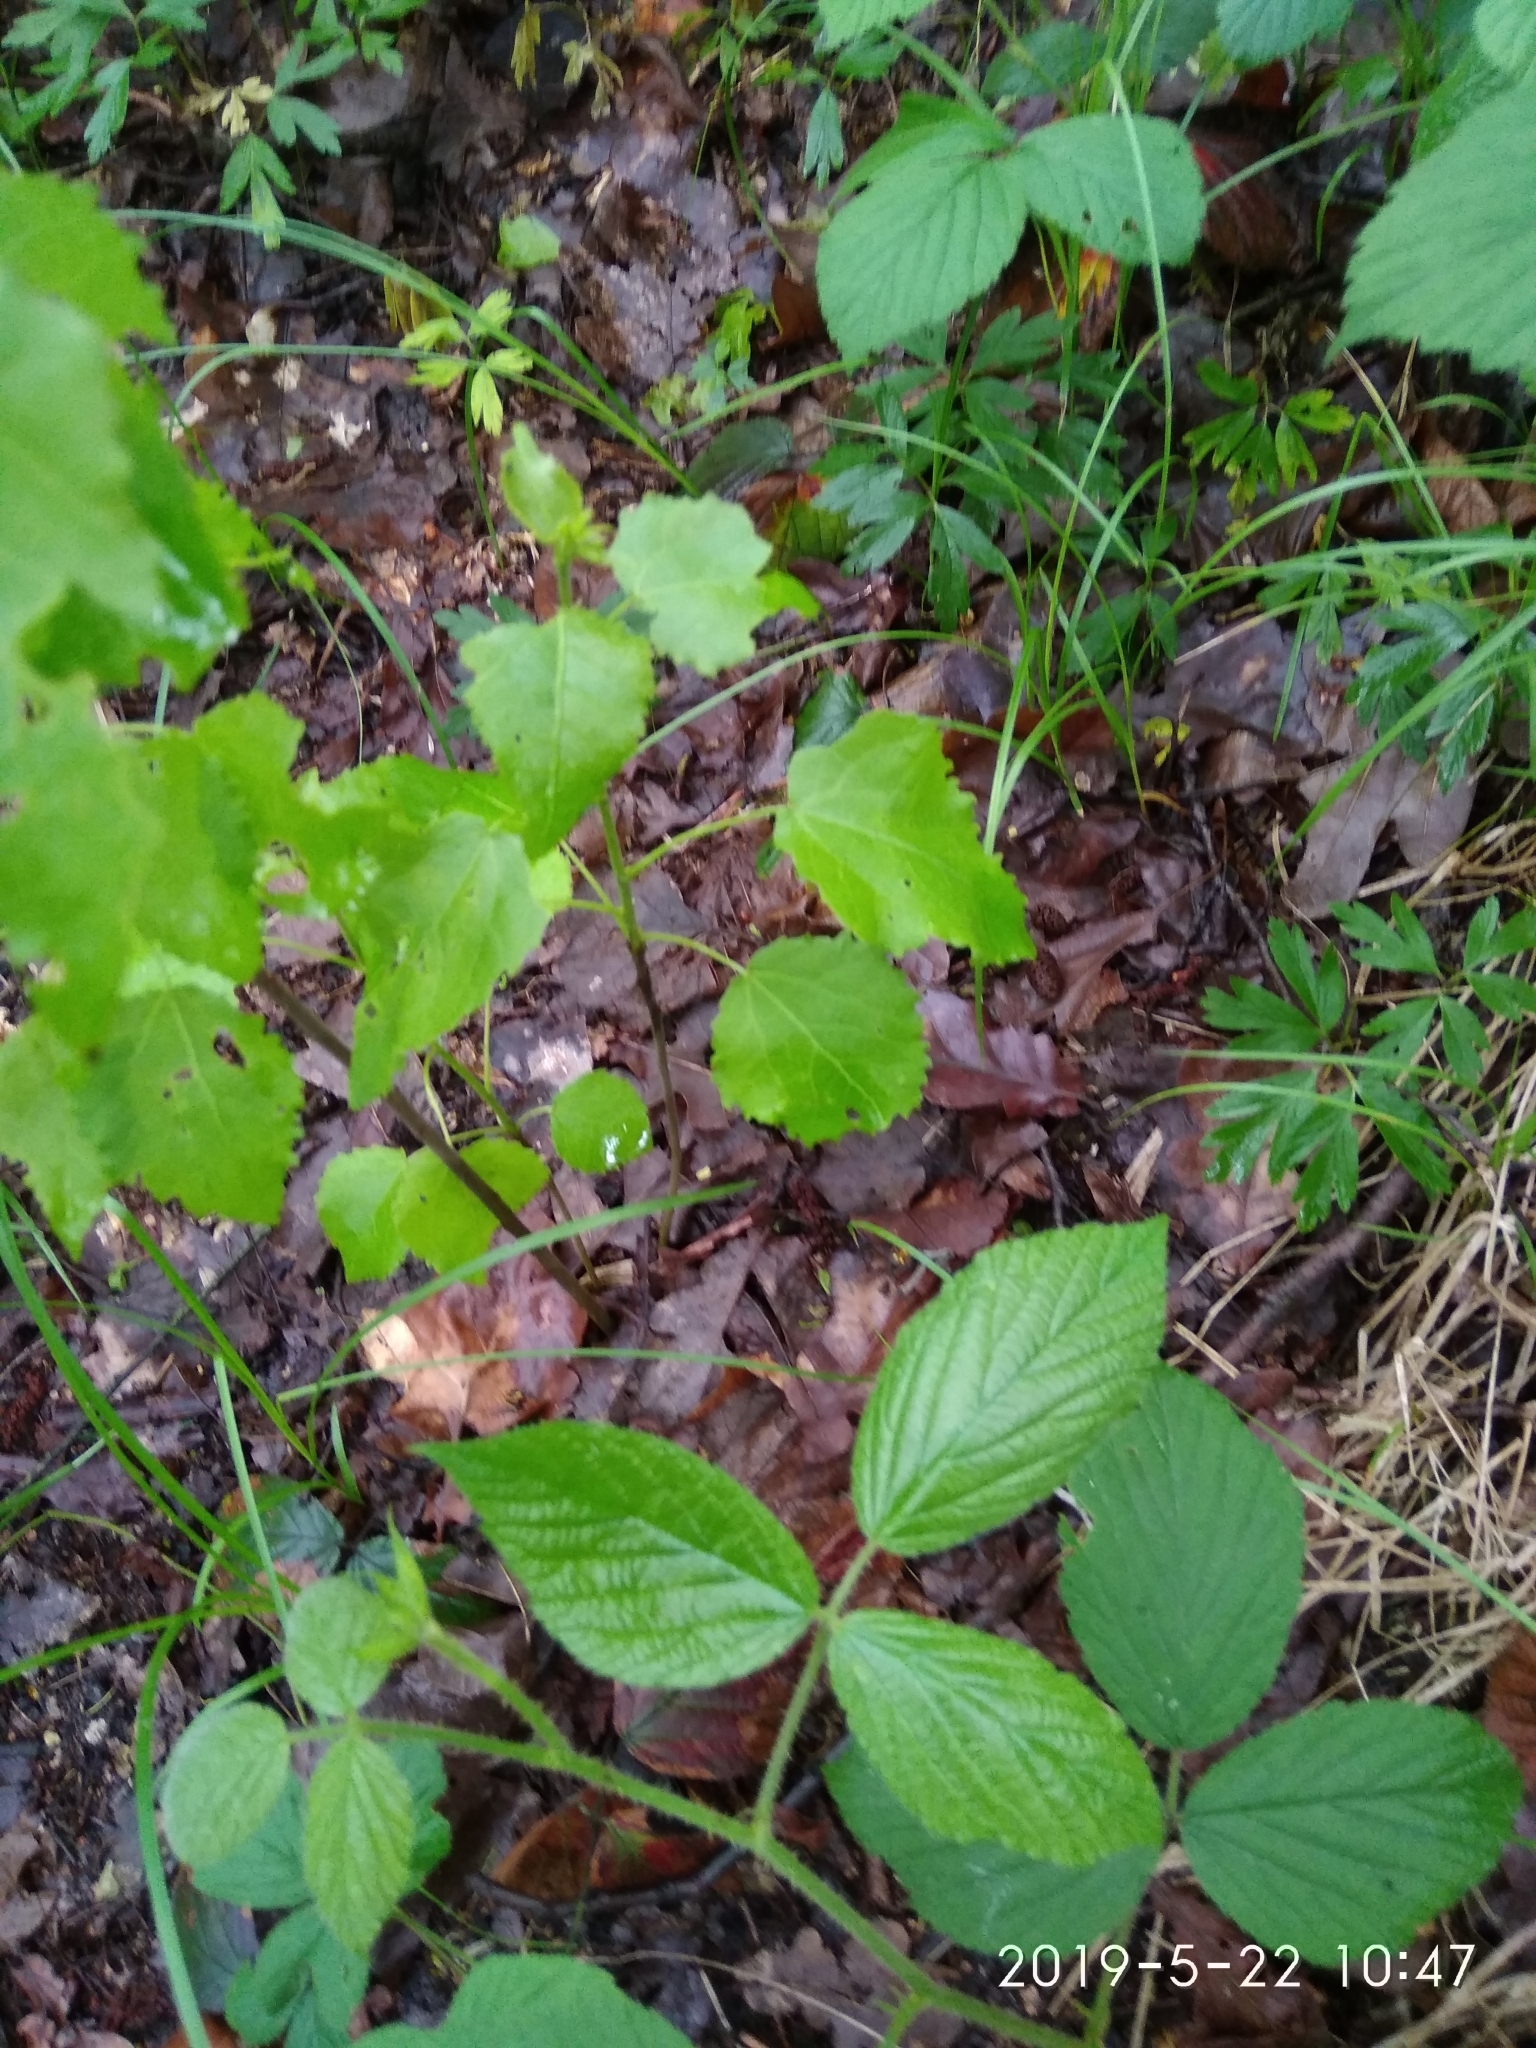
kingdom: Plantae
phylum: Tracheophyta
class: Magnoliopsida
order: Malpighiales
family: Salicaceae
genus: Populus
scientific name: Populus tremula
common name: European aspen
